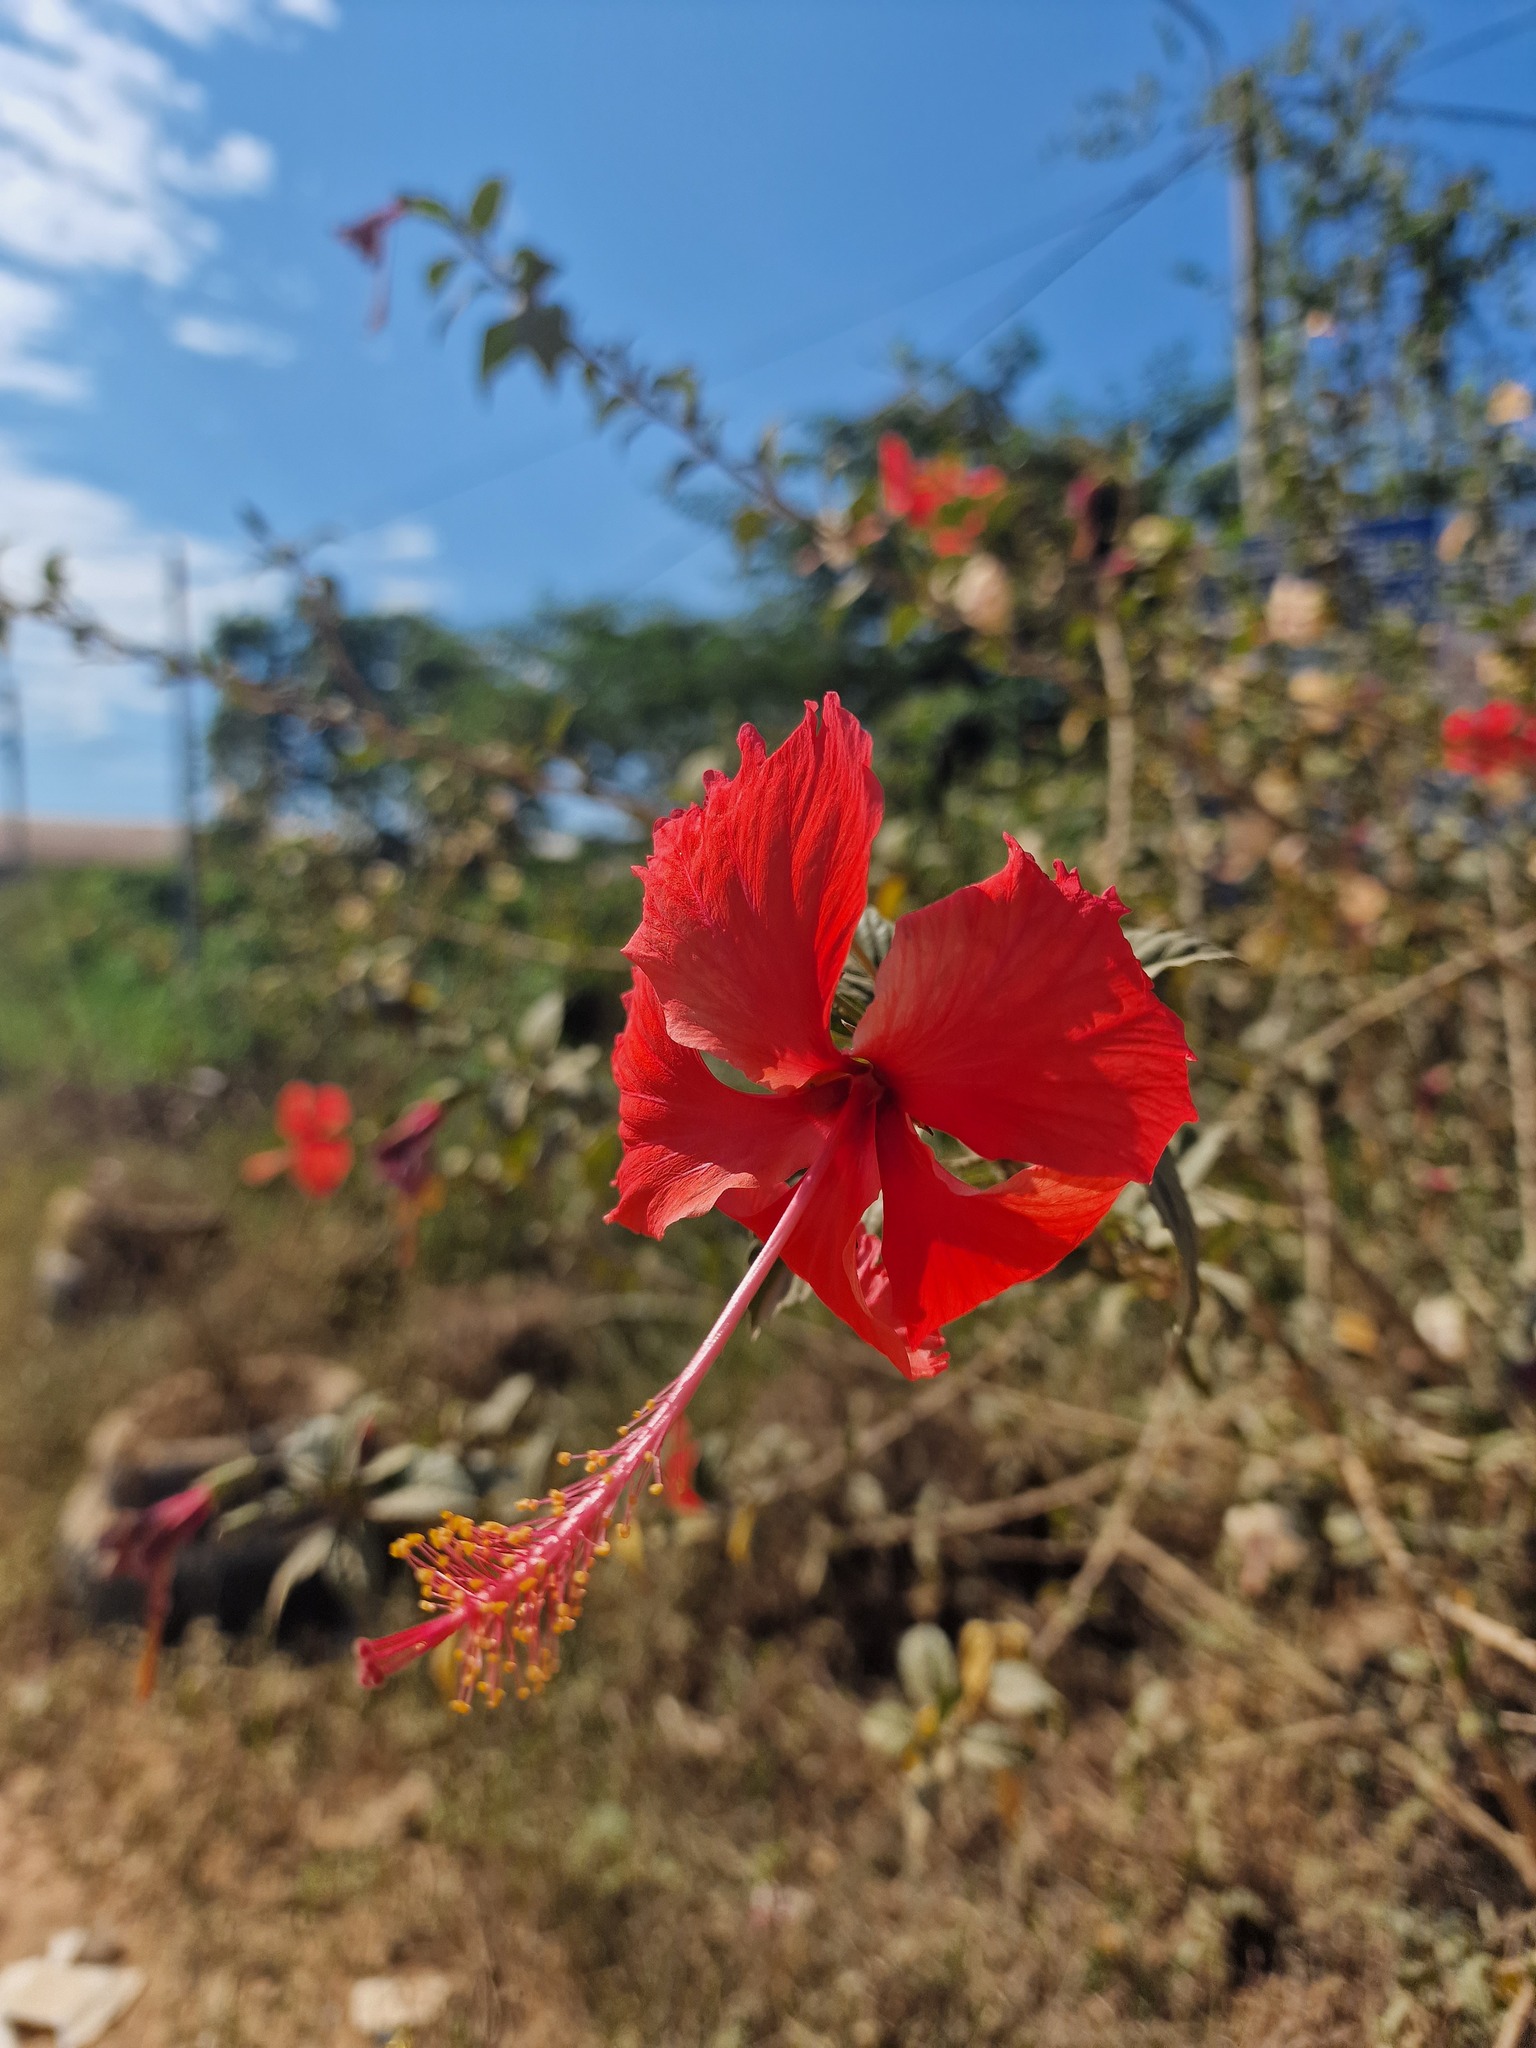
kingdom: Plantae
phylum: Tracheophyta
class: Magnoliopsida
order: Malvales
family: Malvaceae
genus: Hibiscus
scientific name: Hibiscus archeri
